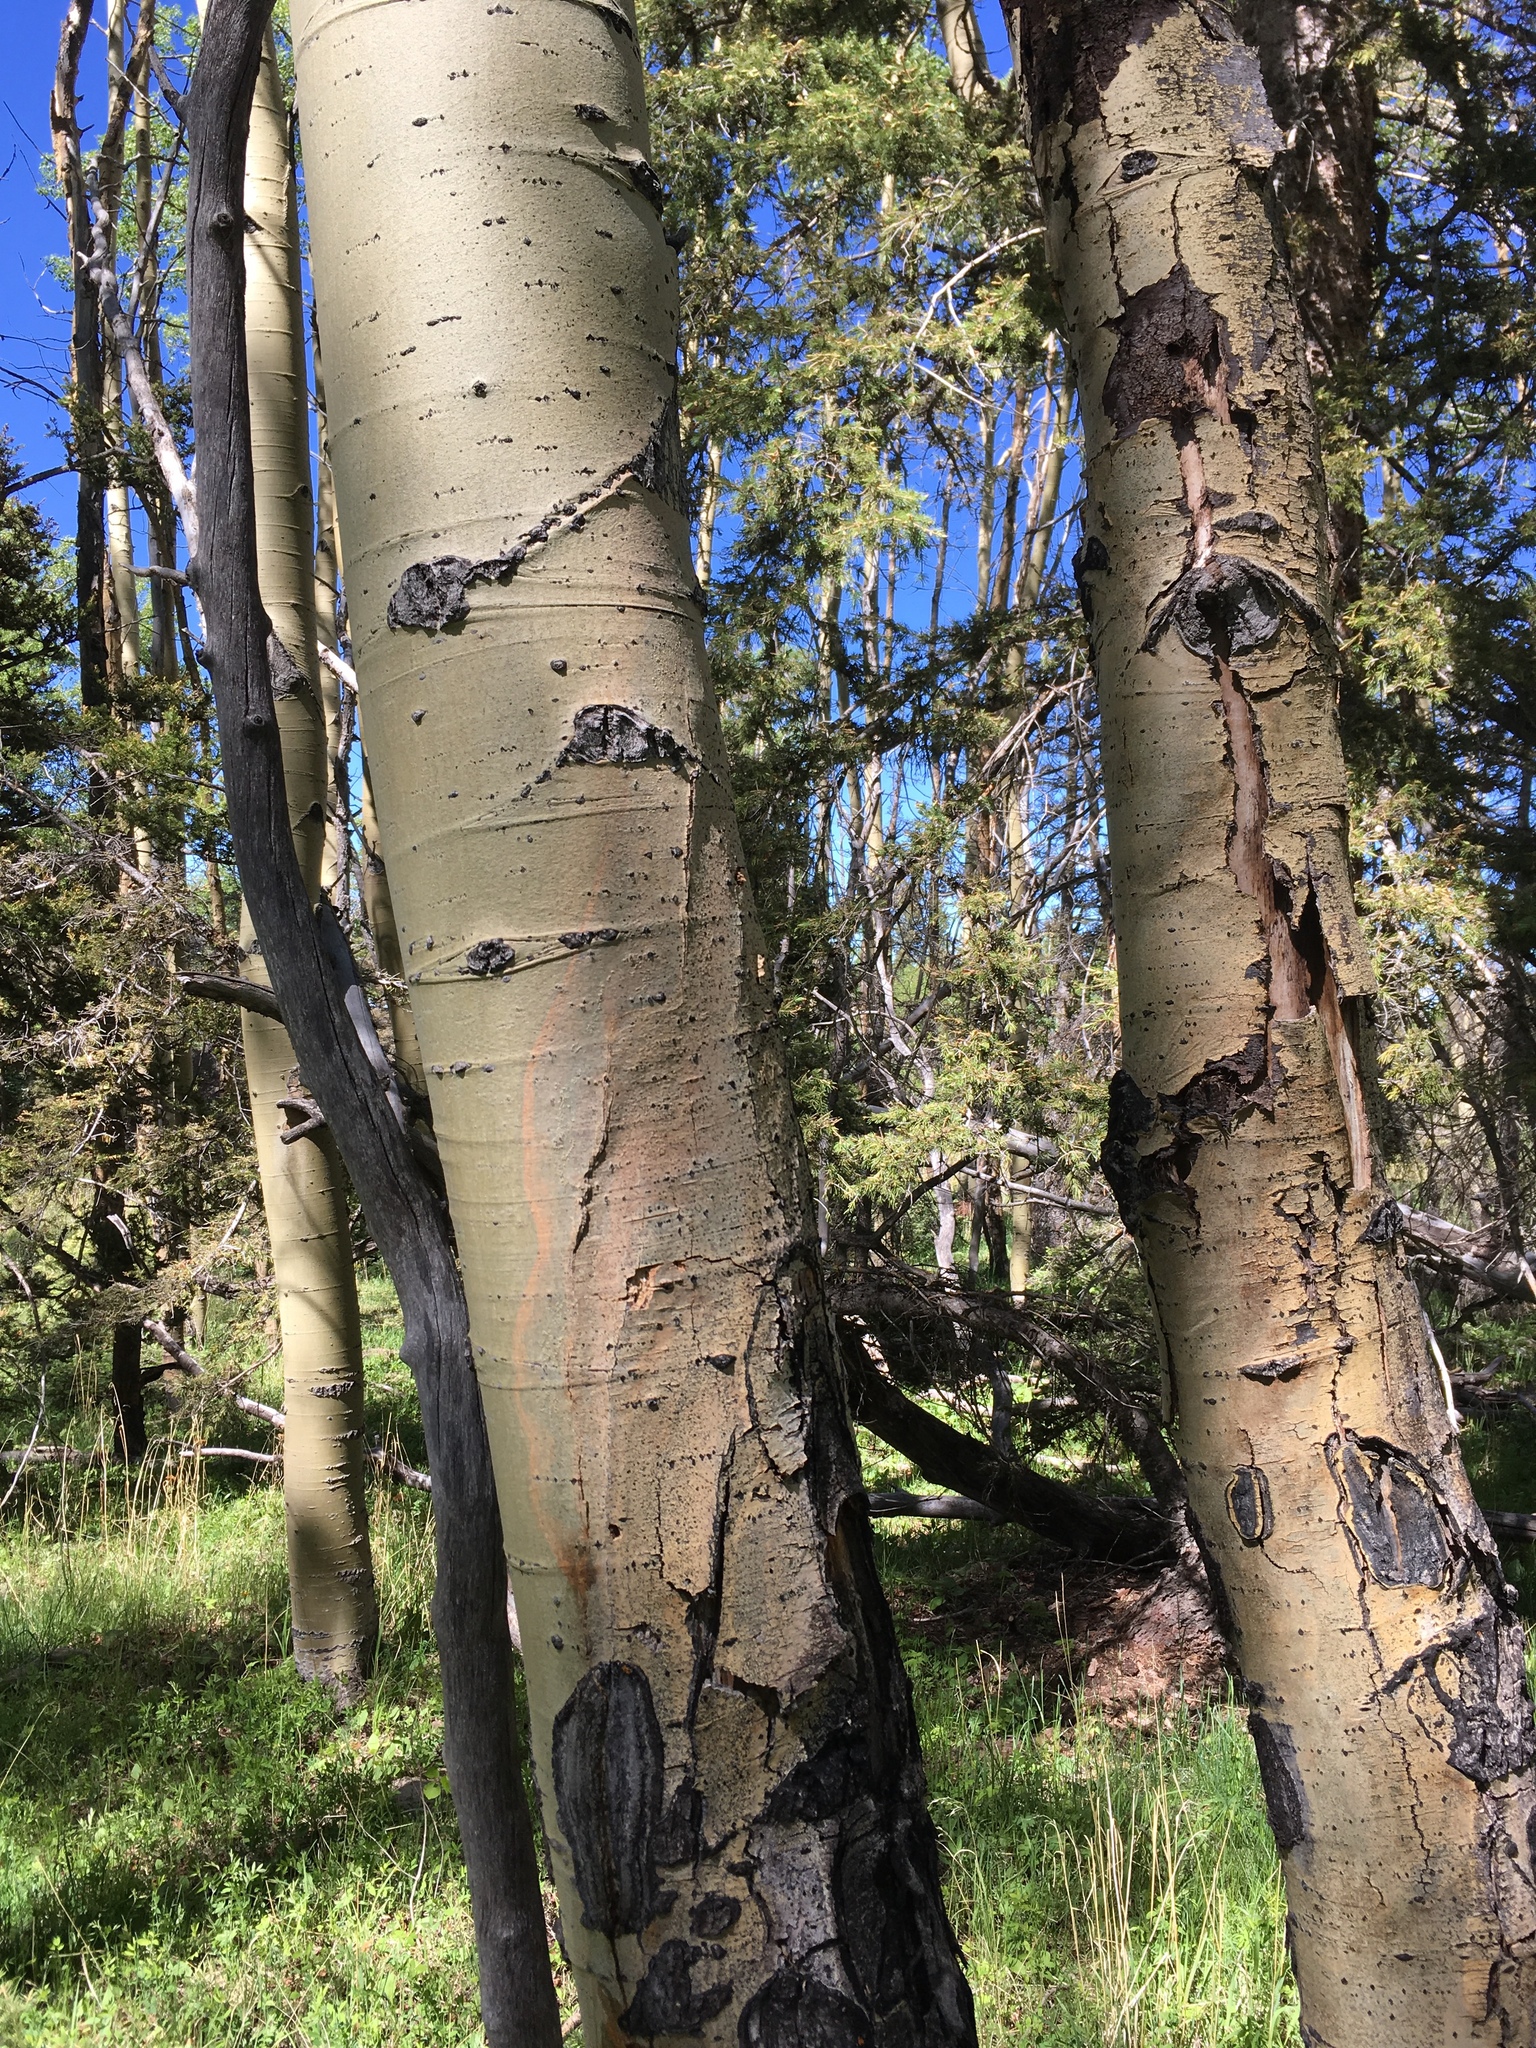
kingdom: Plantae
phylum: Tracheophyta
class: Magnoliopsida
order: Malpighiales
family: Salicaceae
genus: Populus
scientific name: Populus tremuloides
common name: Quaking aspen
